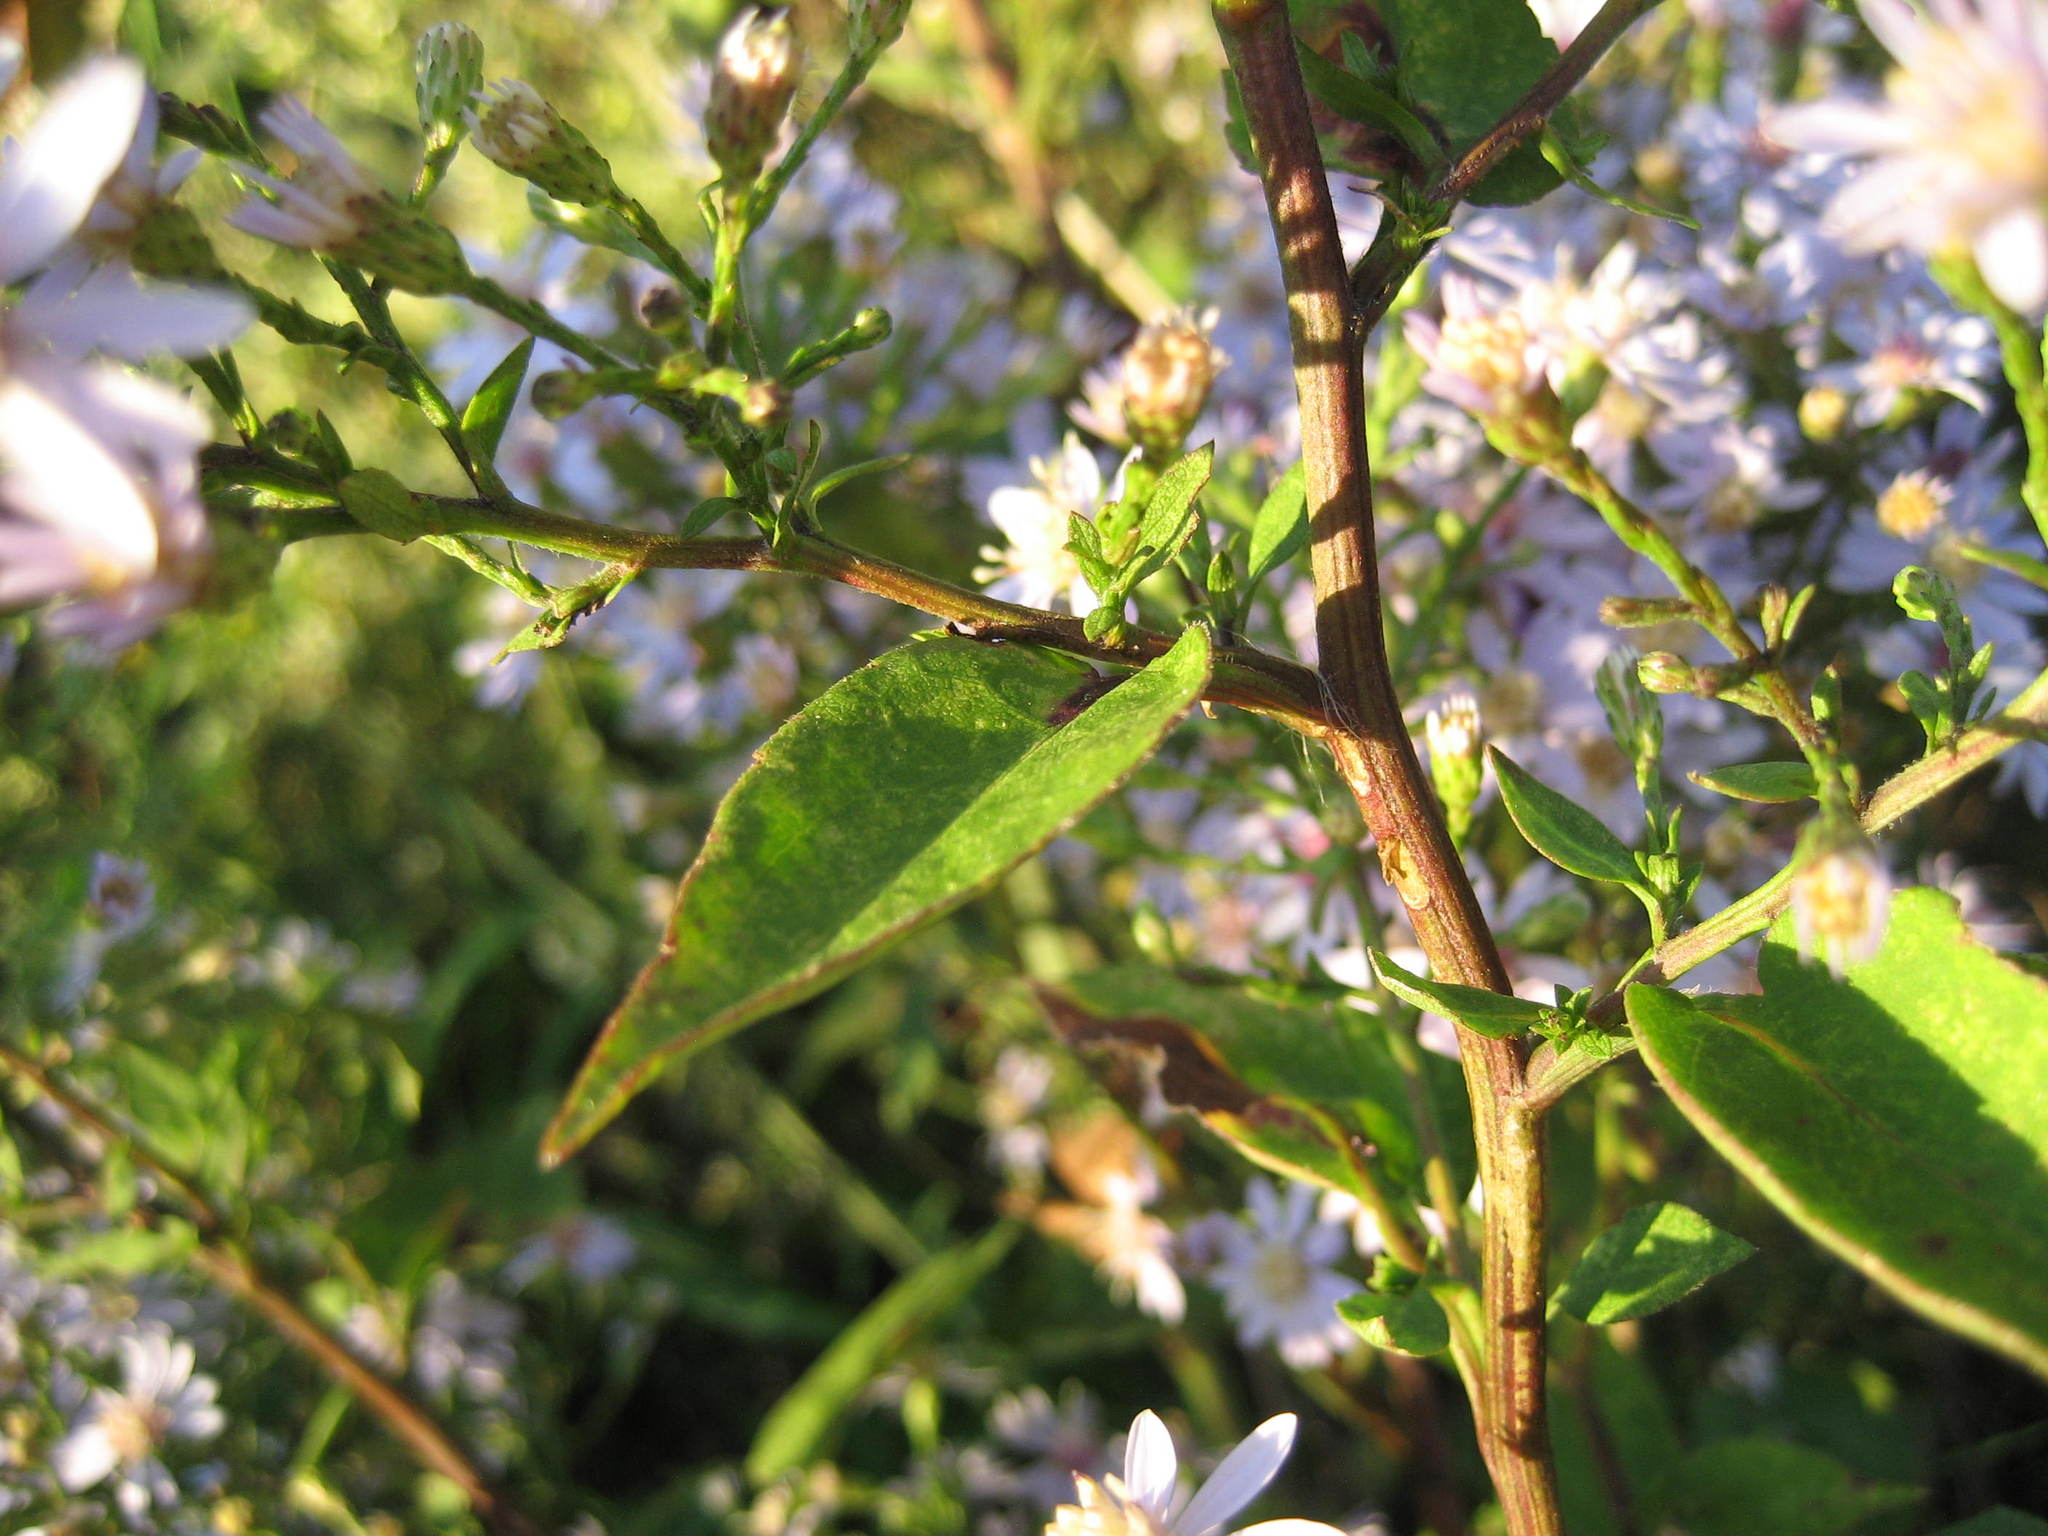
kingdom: Plantae
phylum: Tracheophyta
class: Magnoliopsida
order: Asterales
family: Asteraceae
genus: Symphyotrichum
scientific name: Symphyotrichum cordifolium
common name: Beeweed
